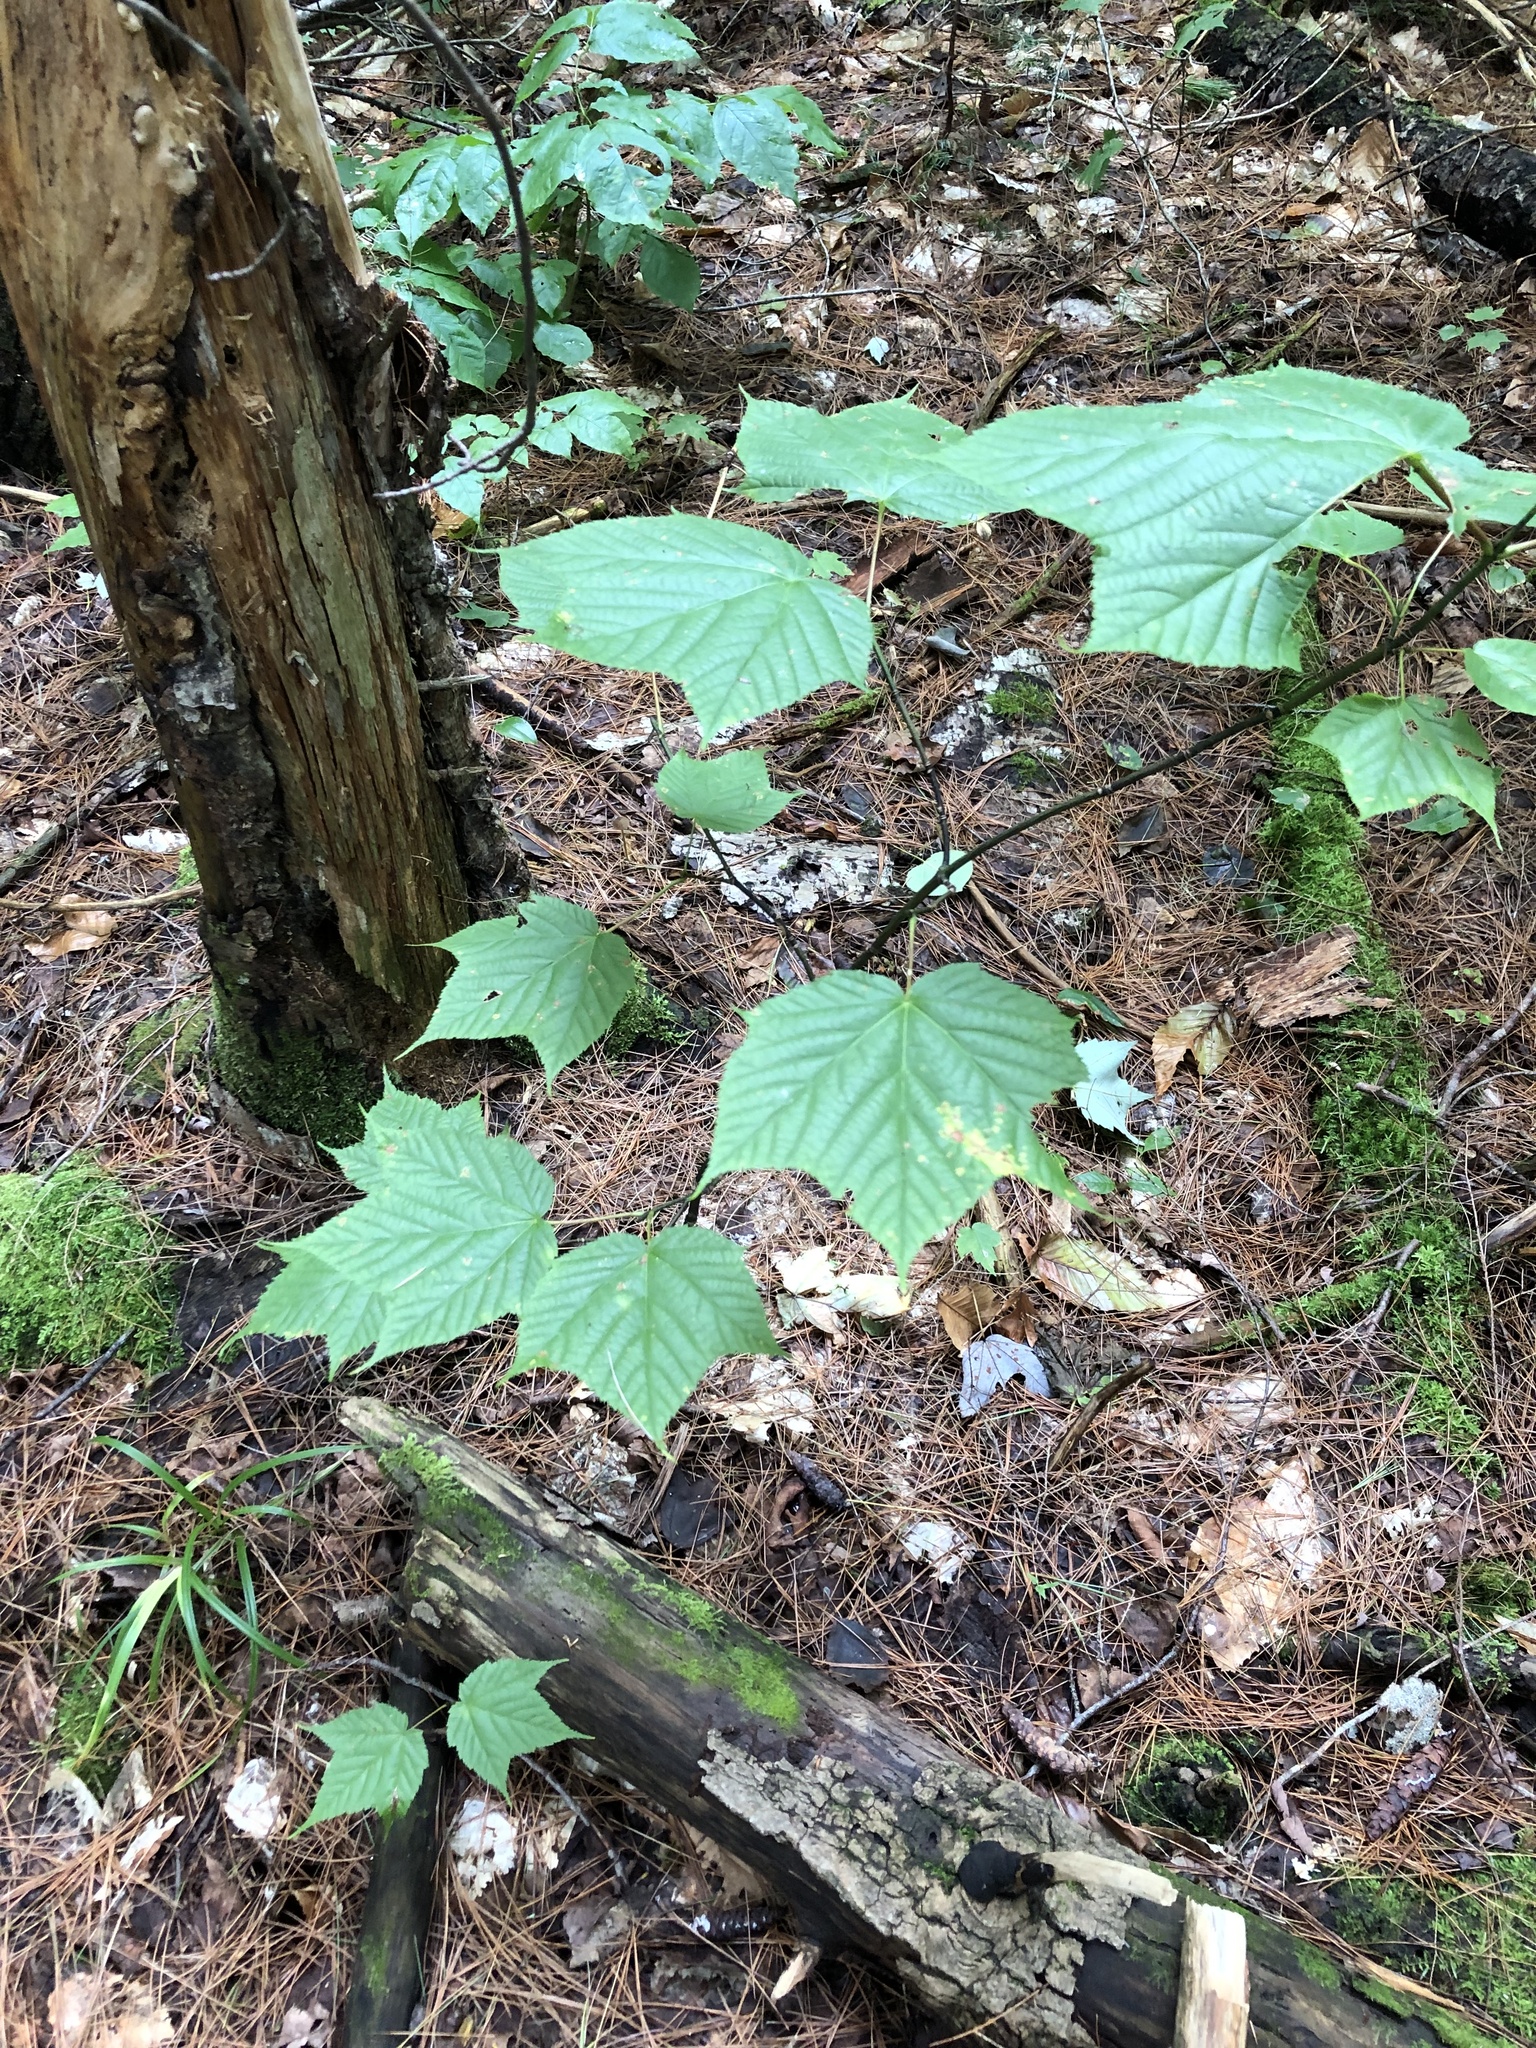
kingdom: Plantae
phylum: Tracheophyta
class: Magnoliopsida
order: Sapindales
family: Sapindaceae
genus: Acer
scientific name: Acer pensylvanicum
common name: Moosewood
